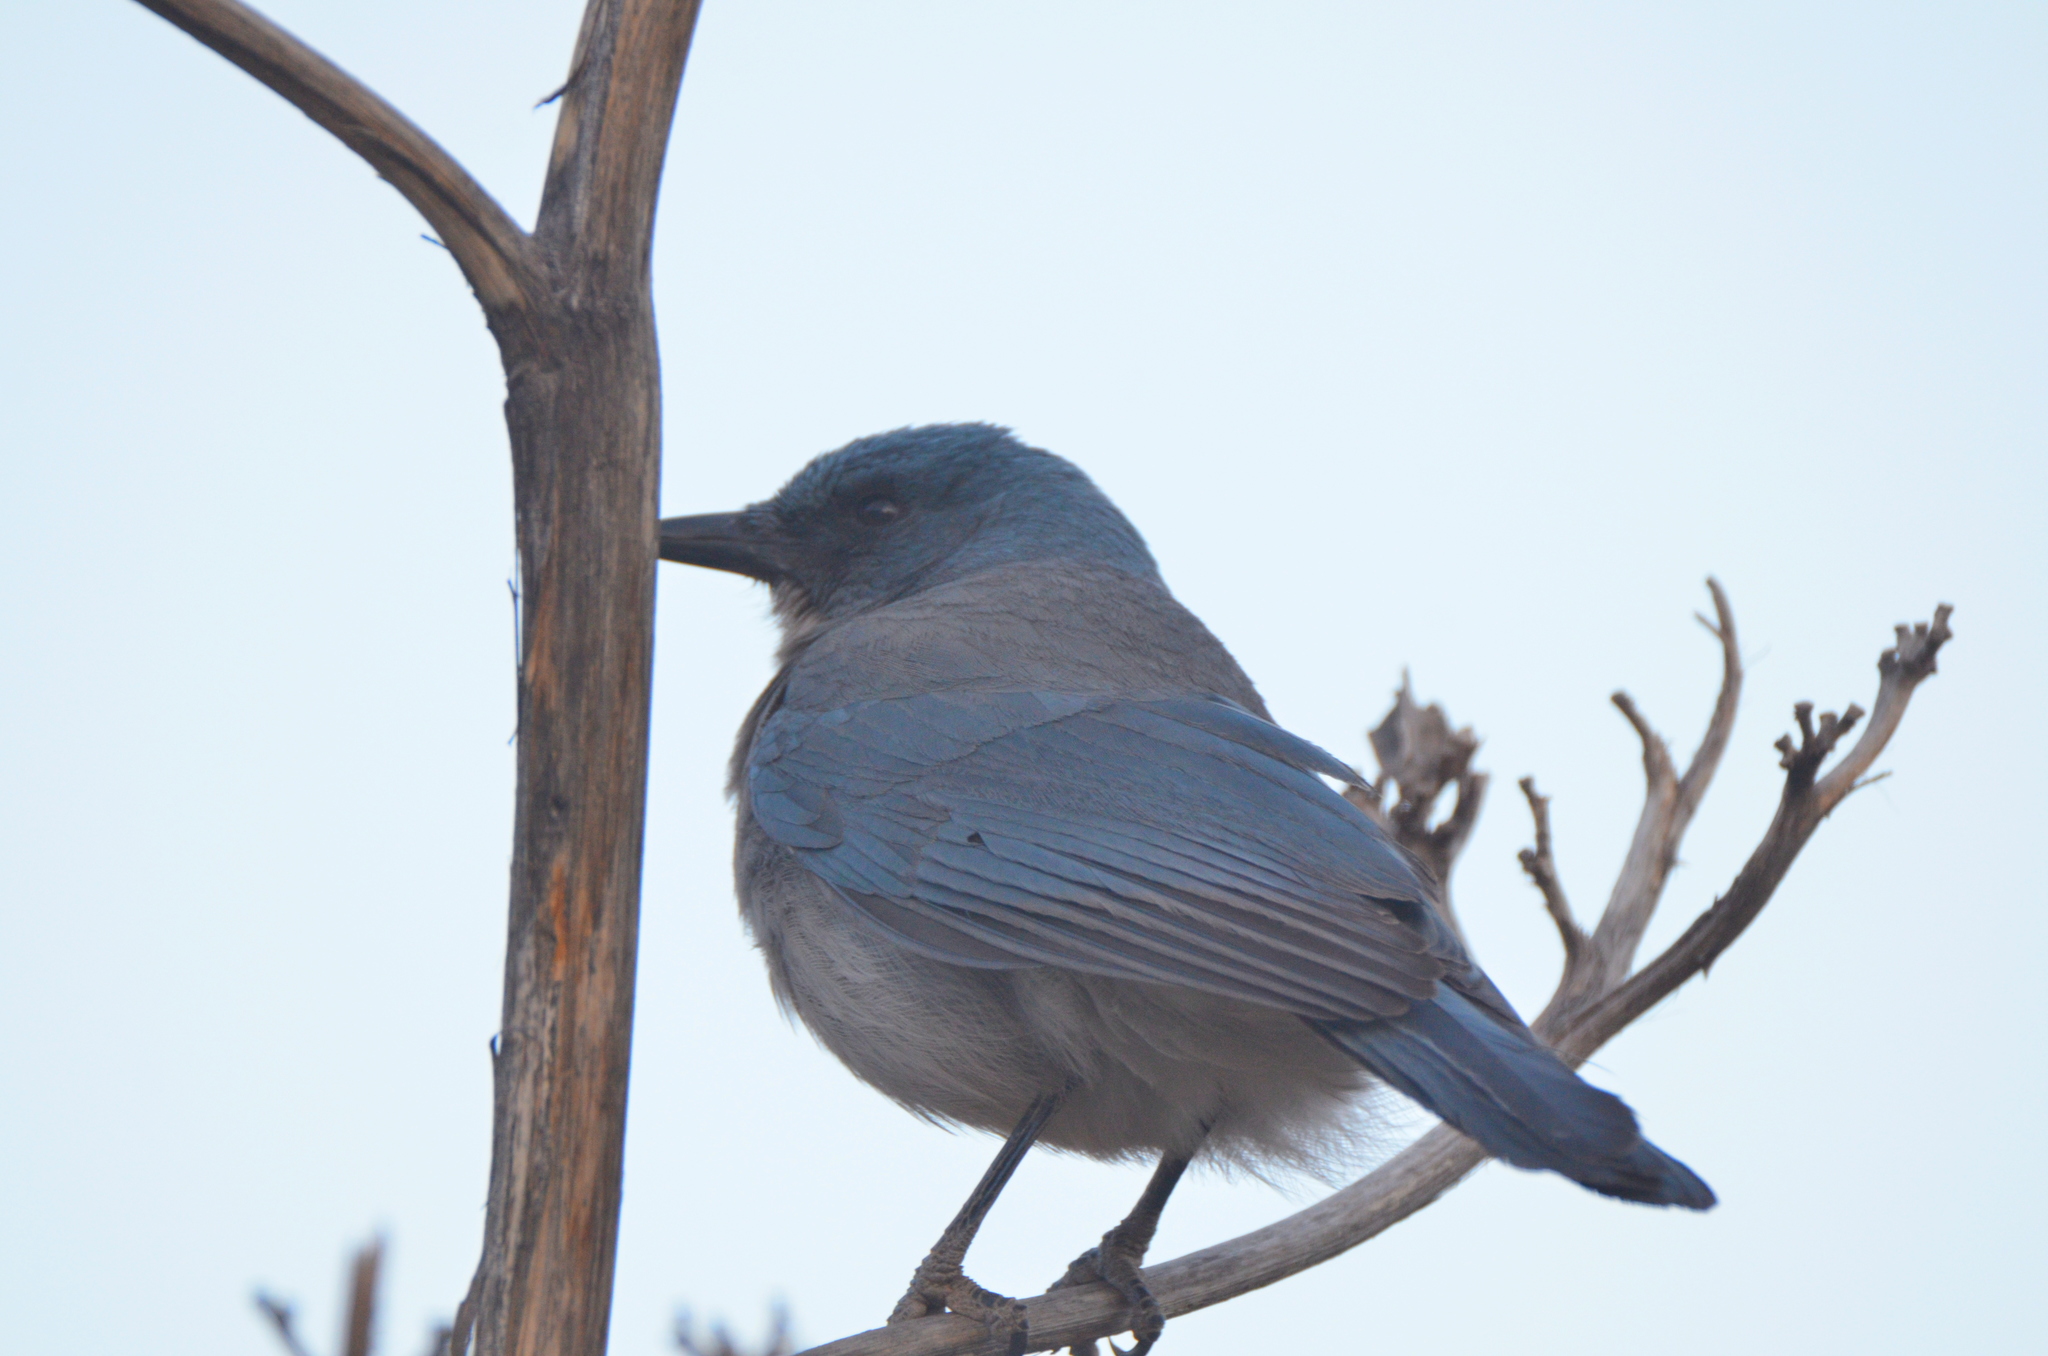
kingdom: Animalia
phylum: Chordata
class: Aves
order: Passeriformes
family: Corvidae
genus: Aphelocoma
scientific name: Aphelocoma wollweberi
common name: Mexican jay
